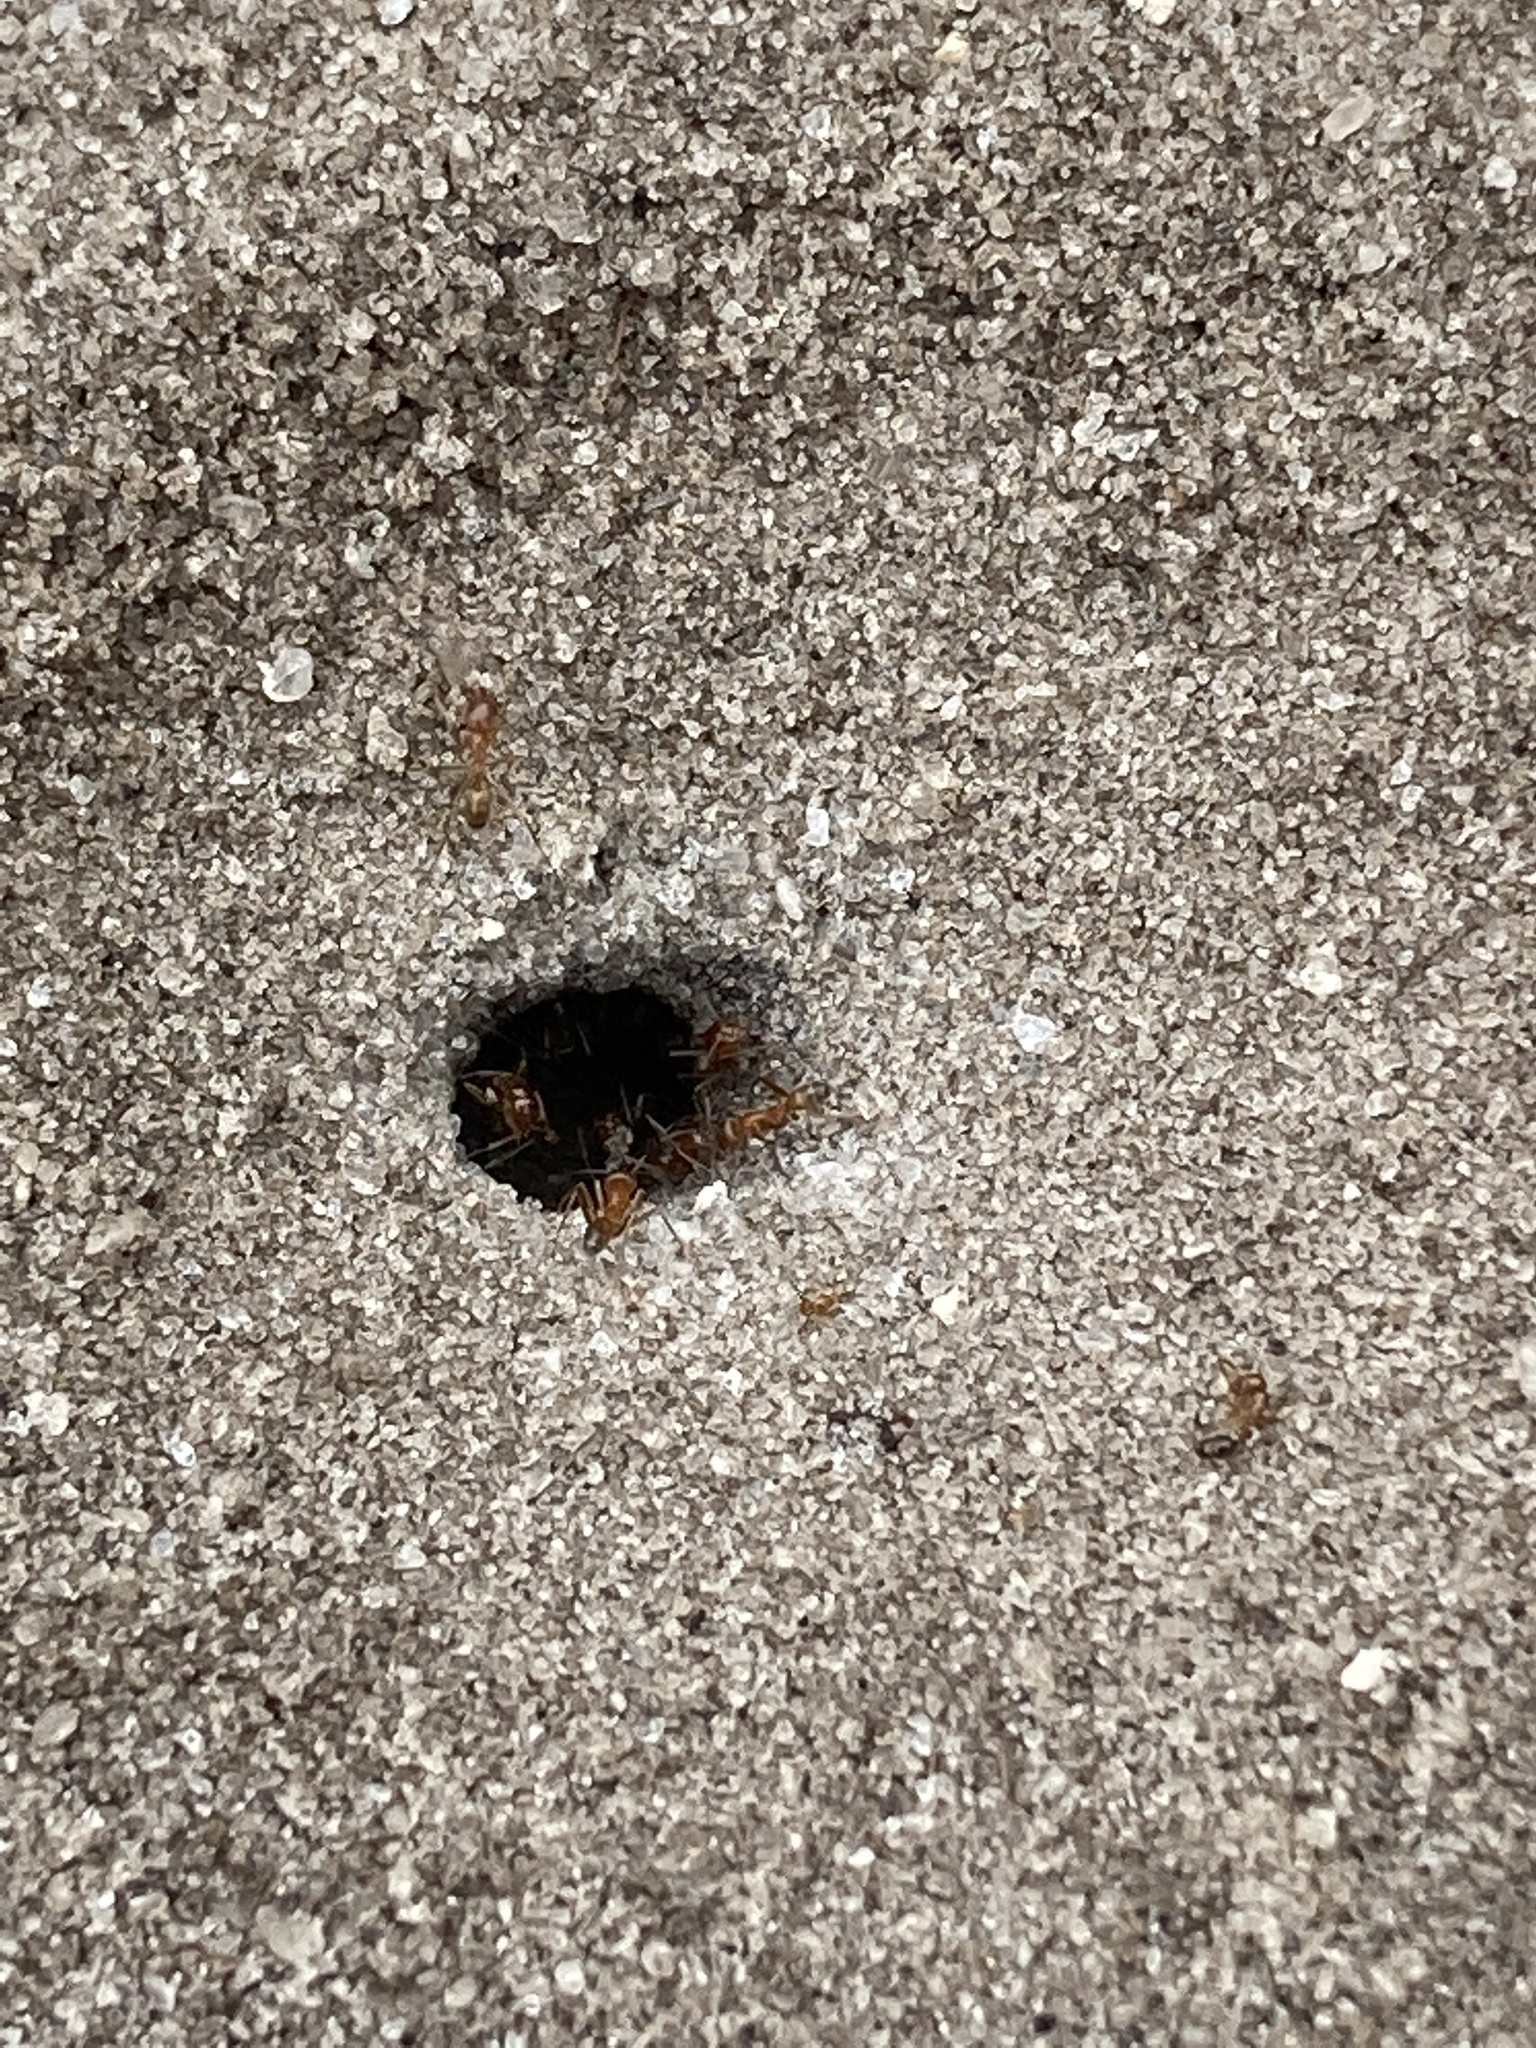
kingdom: Animalia
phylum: Arthropoda
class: Insecta
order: Hymenoptera
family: Formicidae
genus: Dorymyrmex
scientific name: Dorymyrmex bureni
